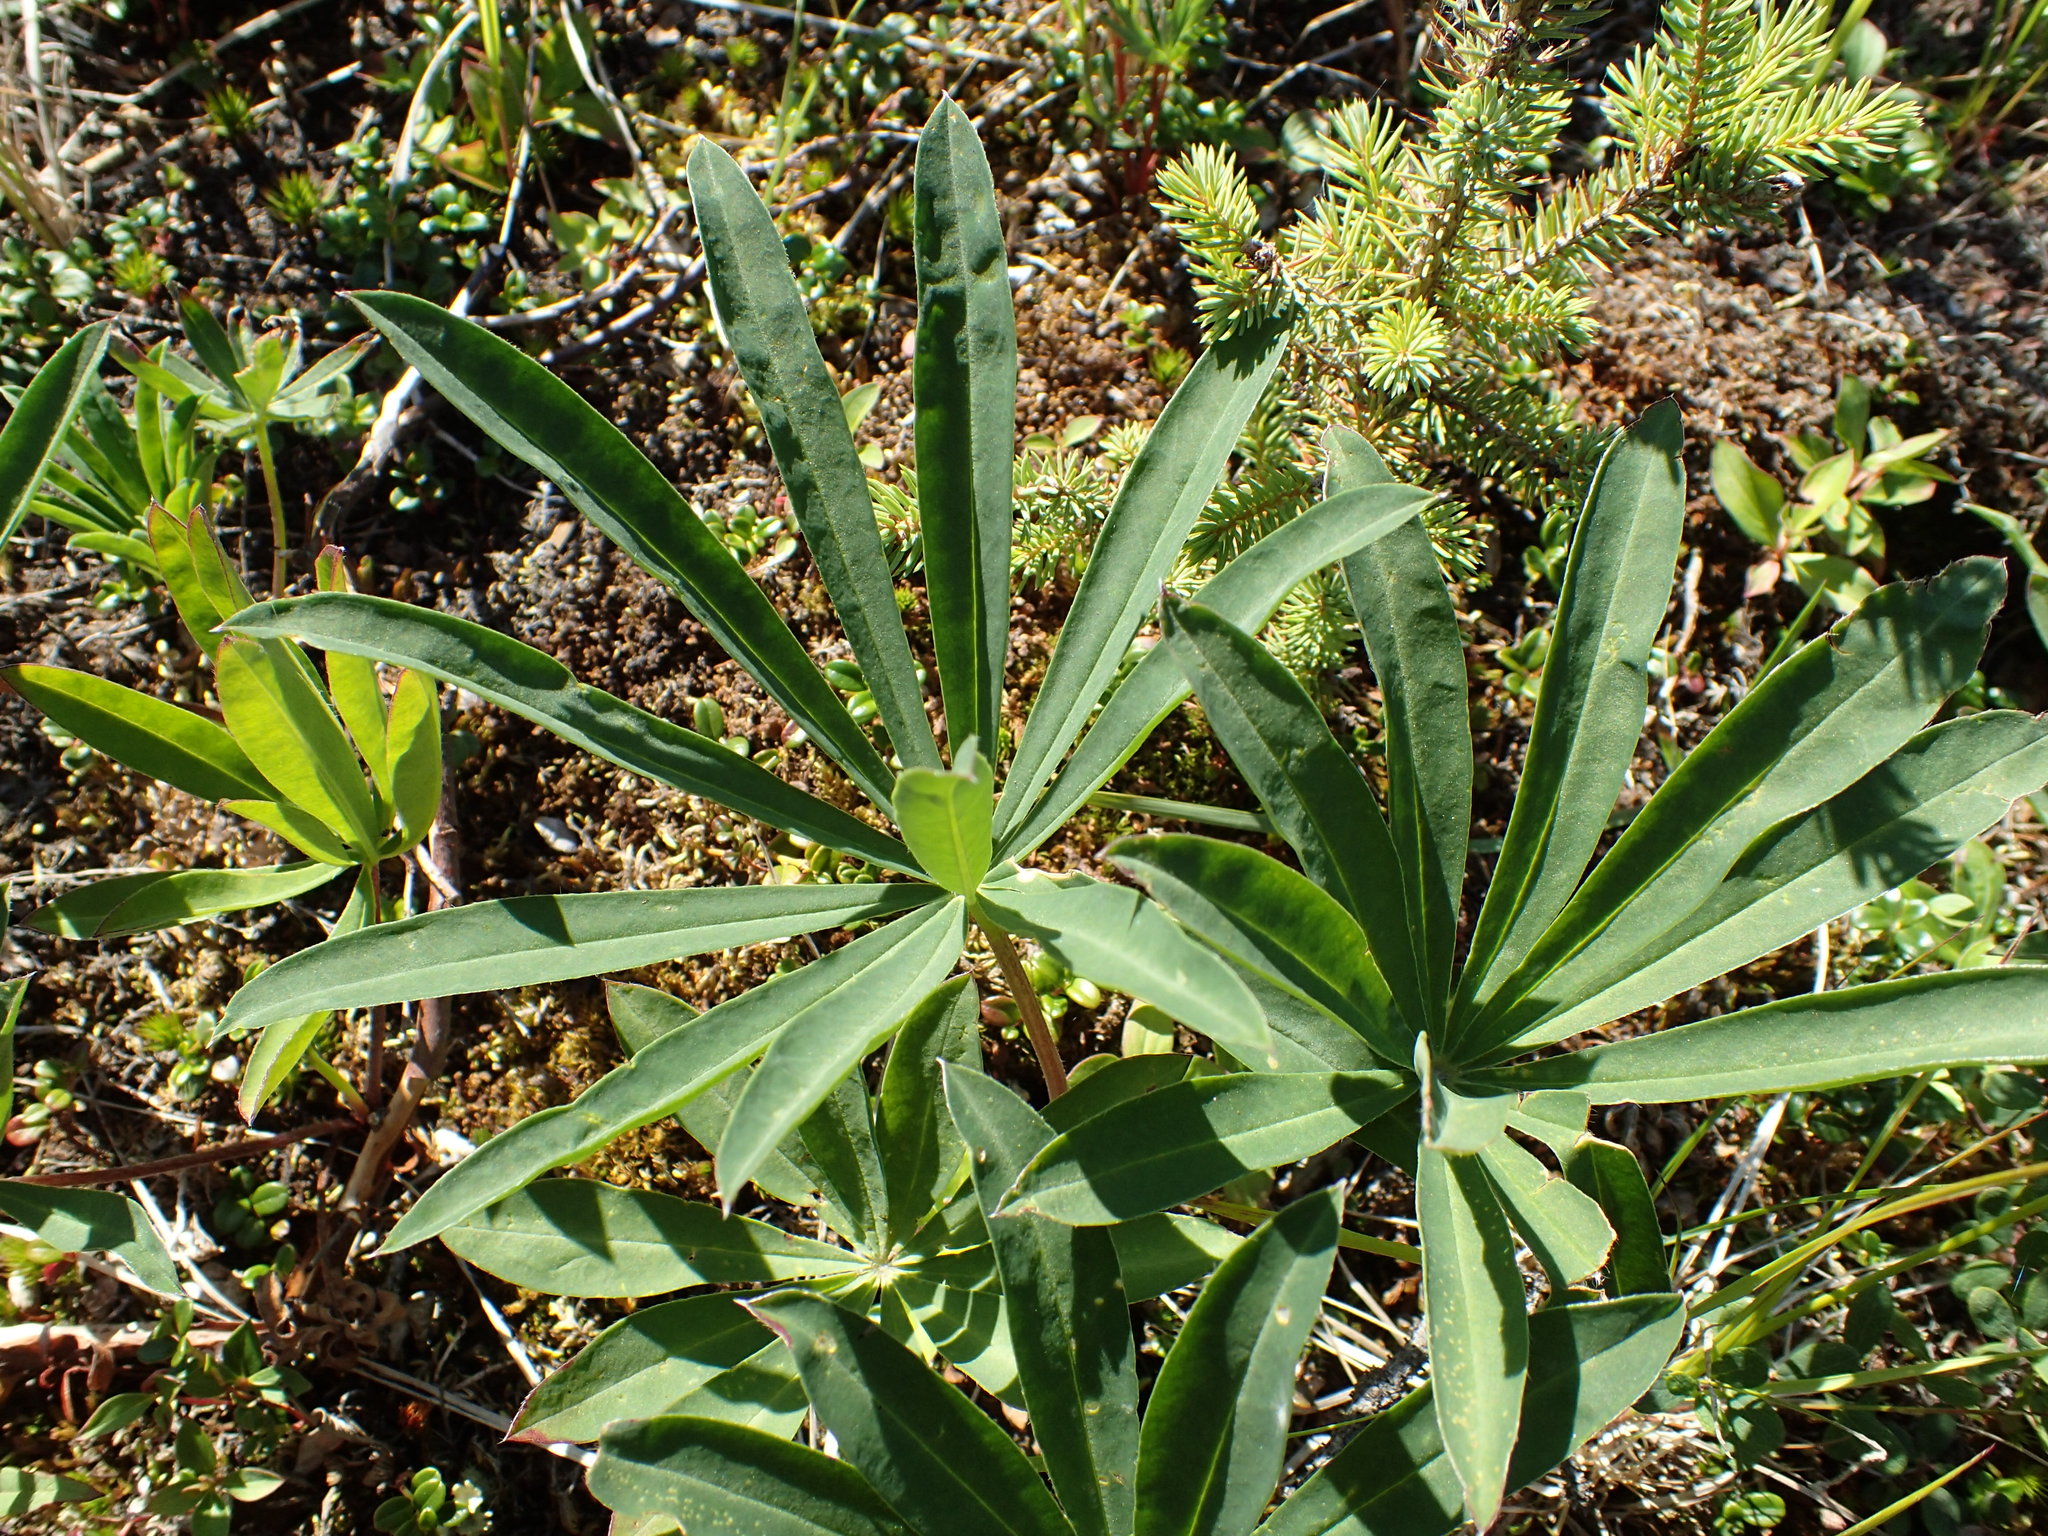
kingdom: Plantae
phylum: Tracheophyta
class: Magnoliopsida
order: Fabales
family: Fabaceae
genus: Lupinus
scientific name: Lupinus polyphyllus
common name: Garden lupin
